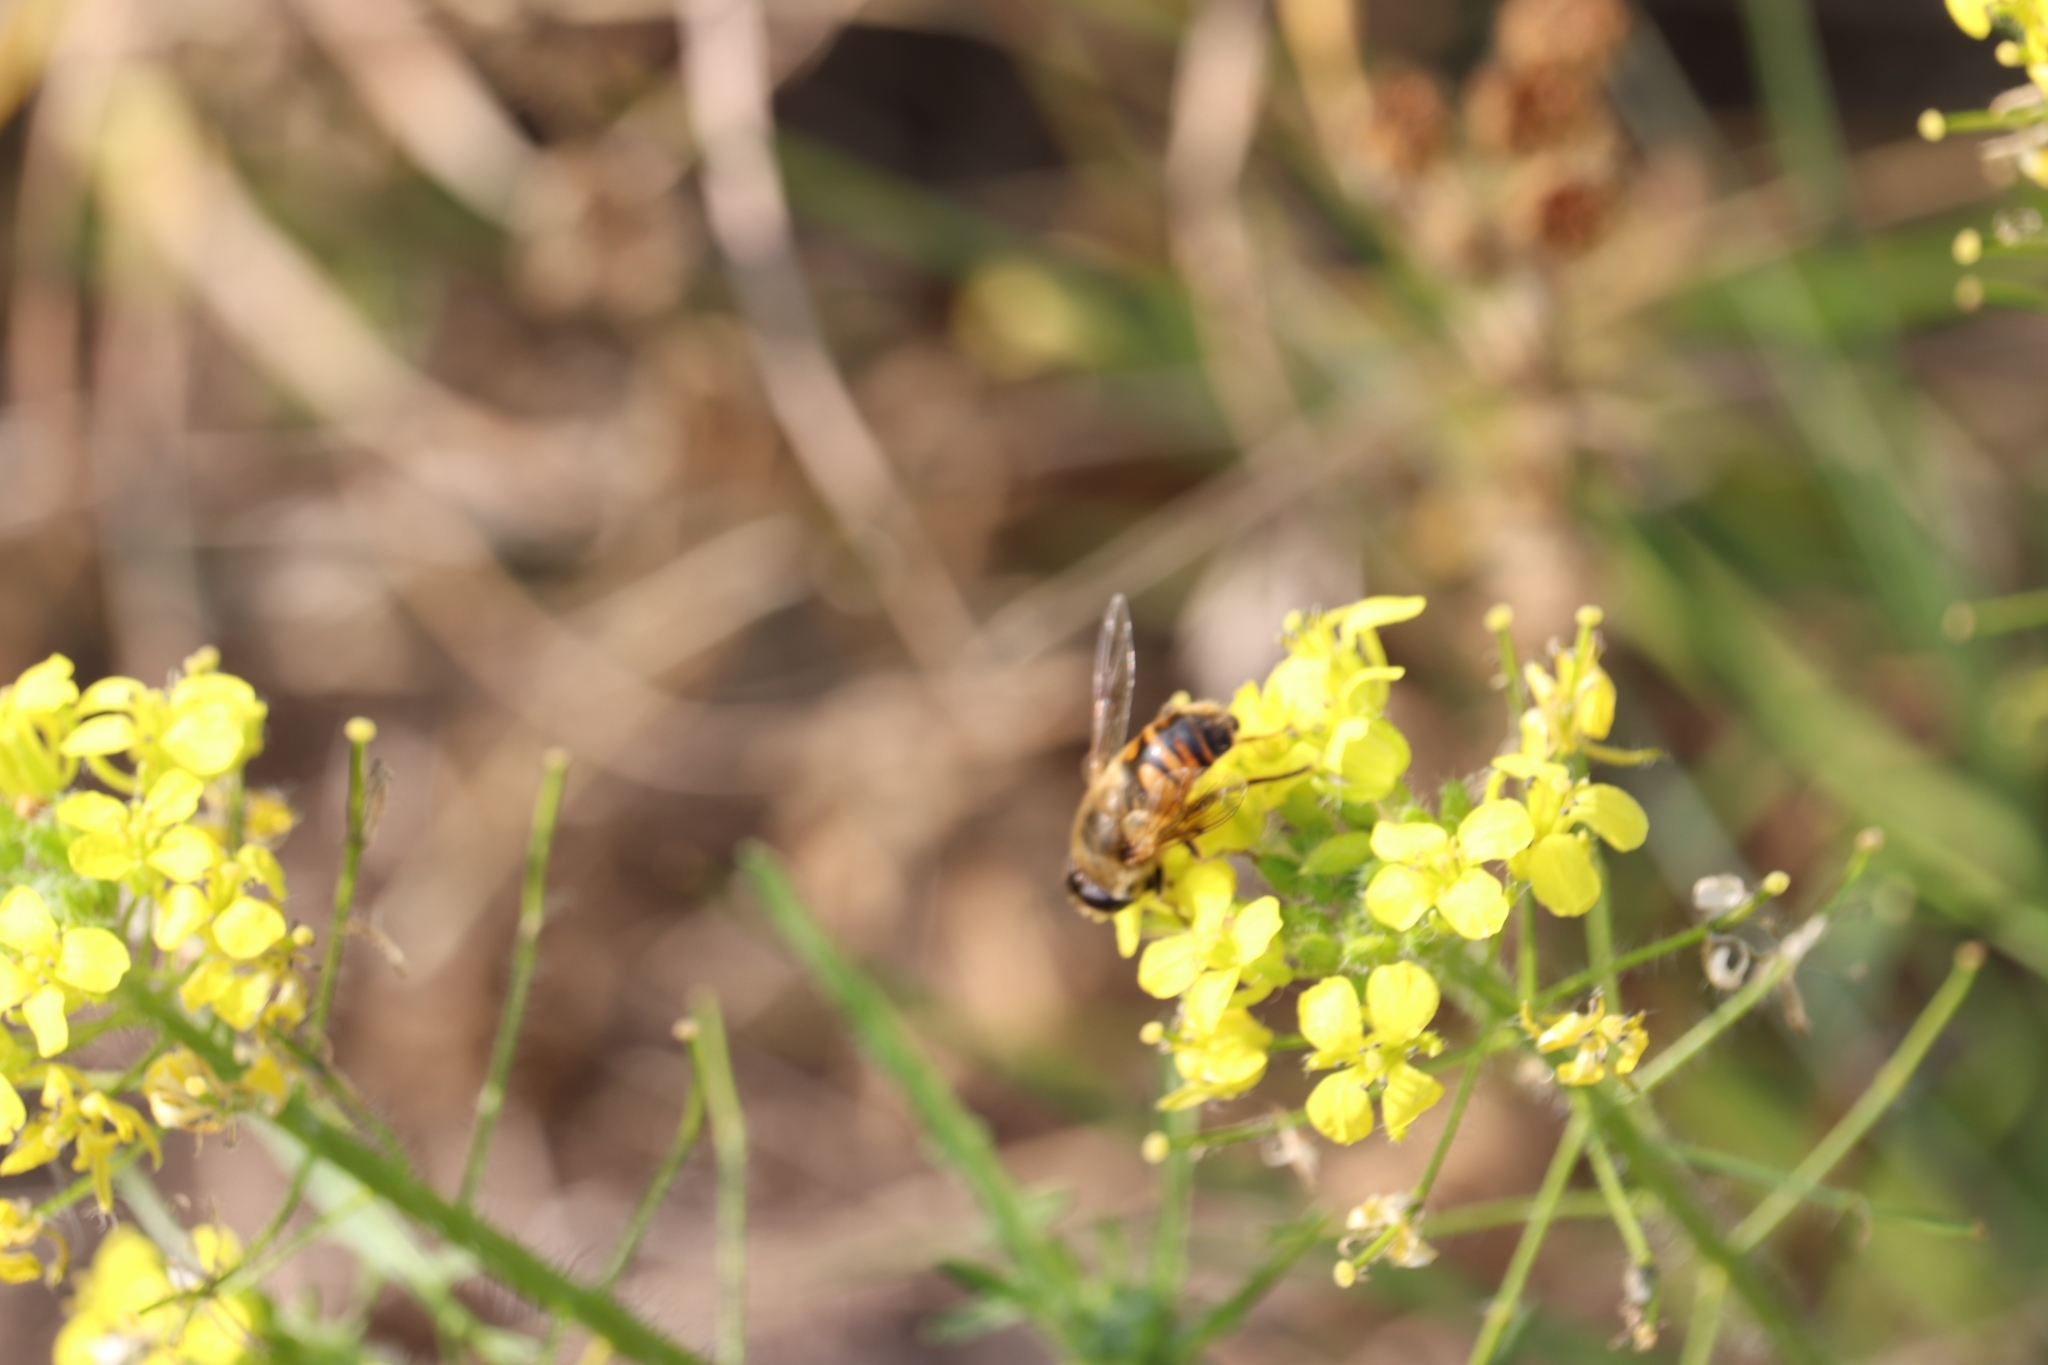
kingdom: Animalia
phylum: Arthropoda
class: Insecta
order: Diptera
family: Syrphidae
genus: Eristalis
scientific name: Eristalis tenax
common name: Drone fly
